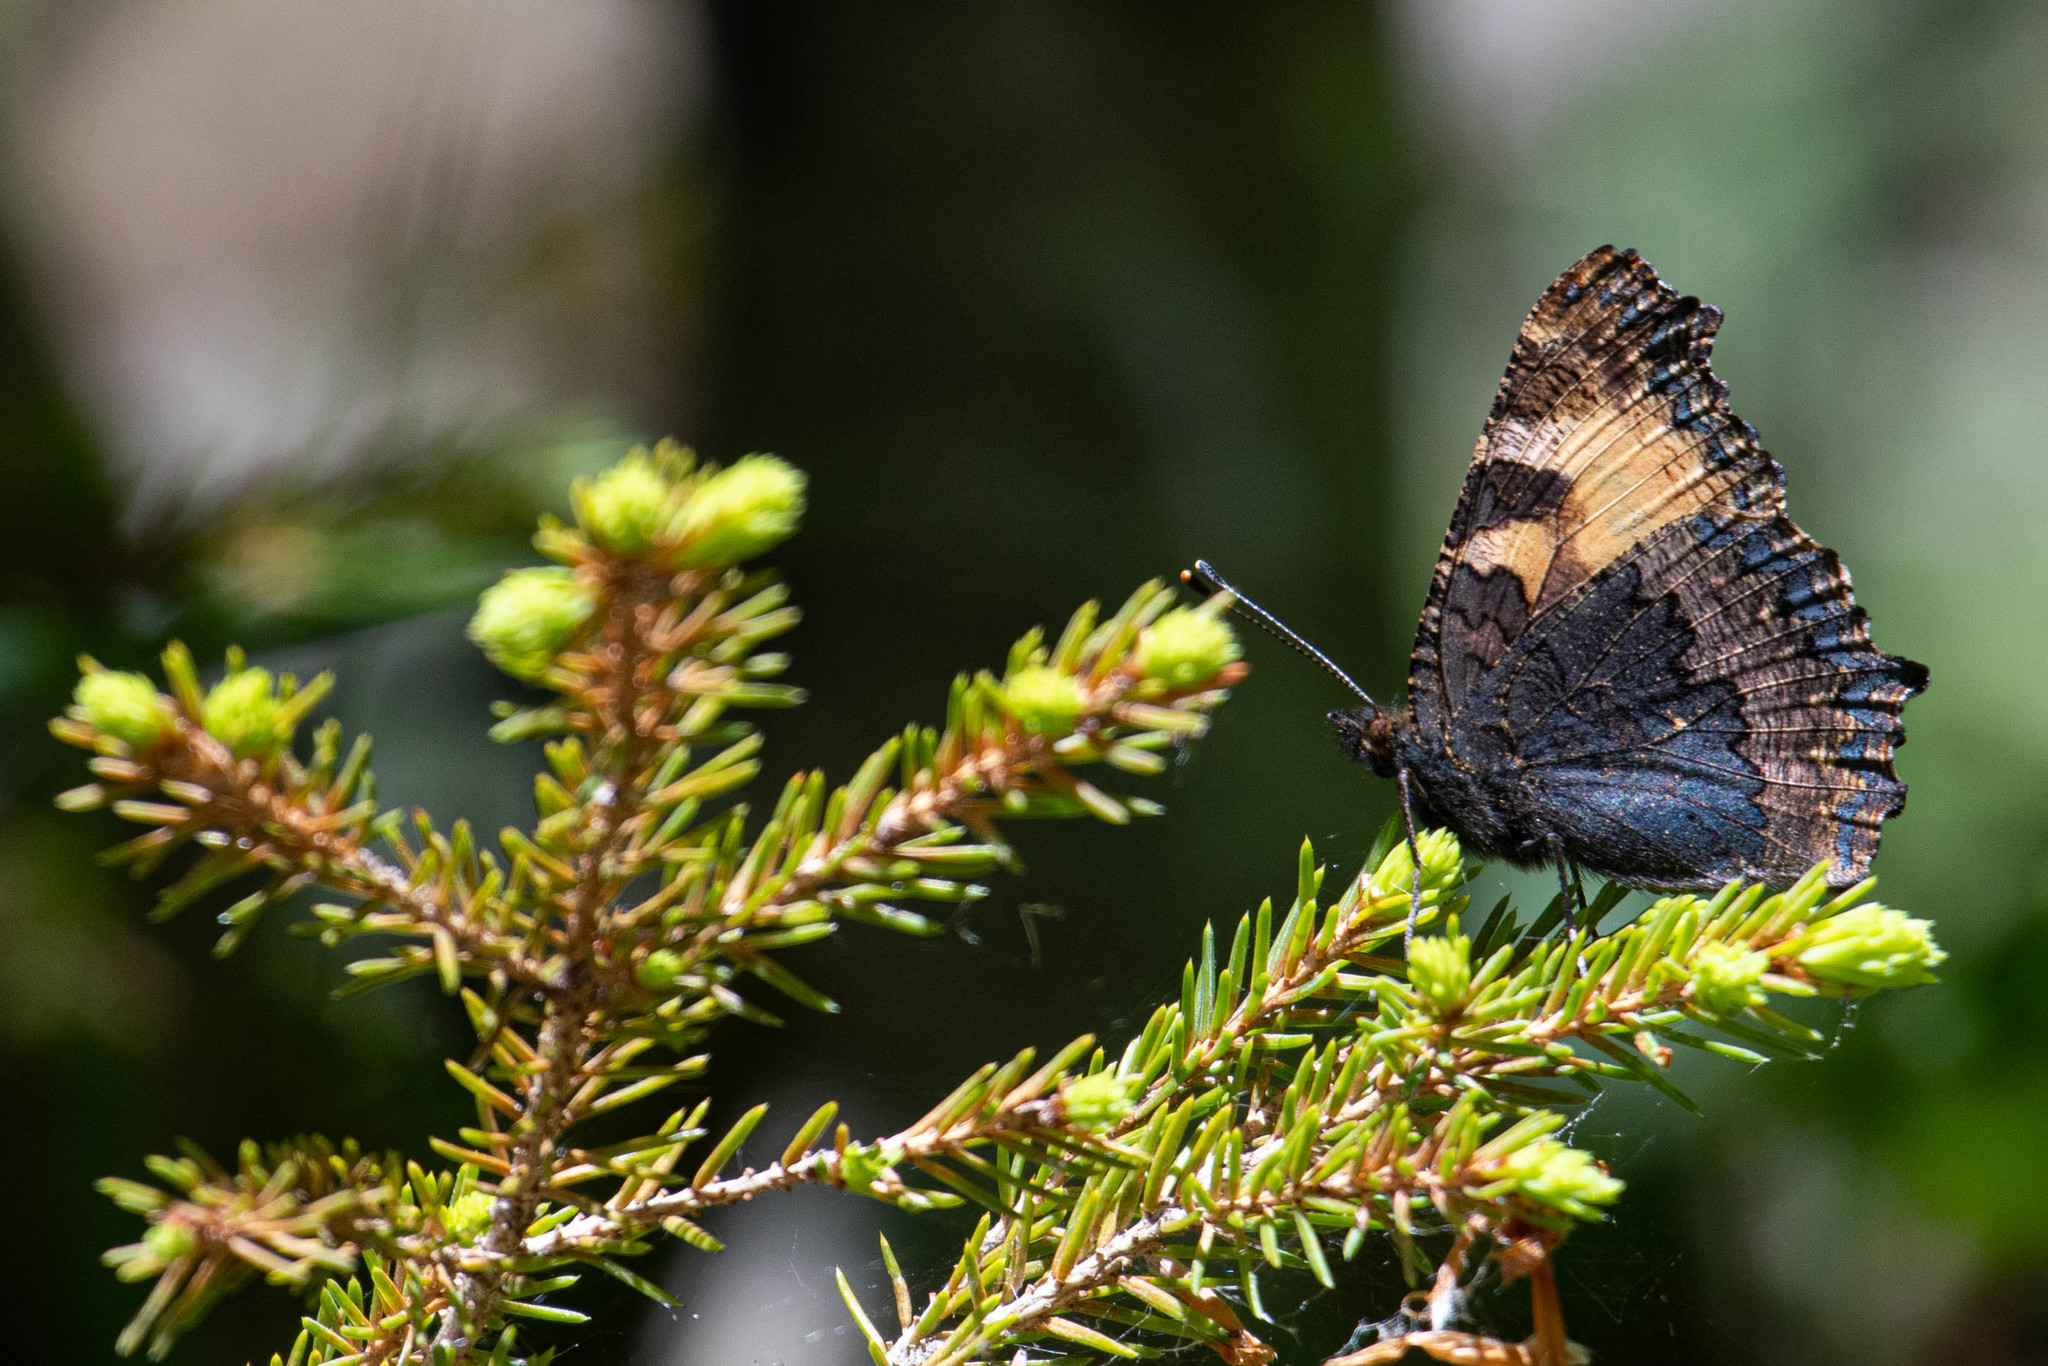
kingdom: Animalia
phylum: Arthropoda
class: Insecta
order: Lepidoptera
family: Nymphalidae
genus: Aglais
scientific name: Aglais urticae
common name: Small tortoiseshell
